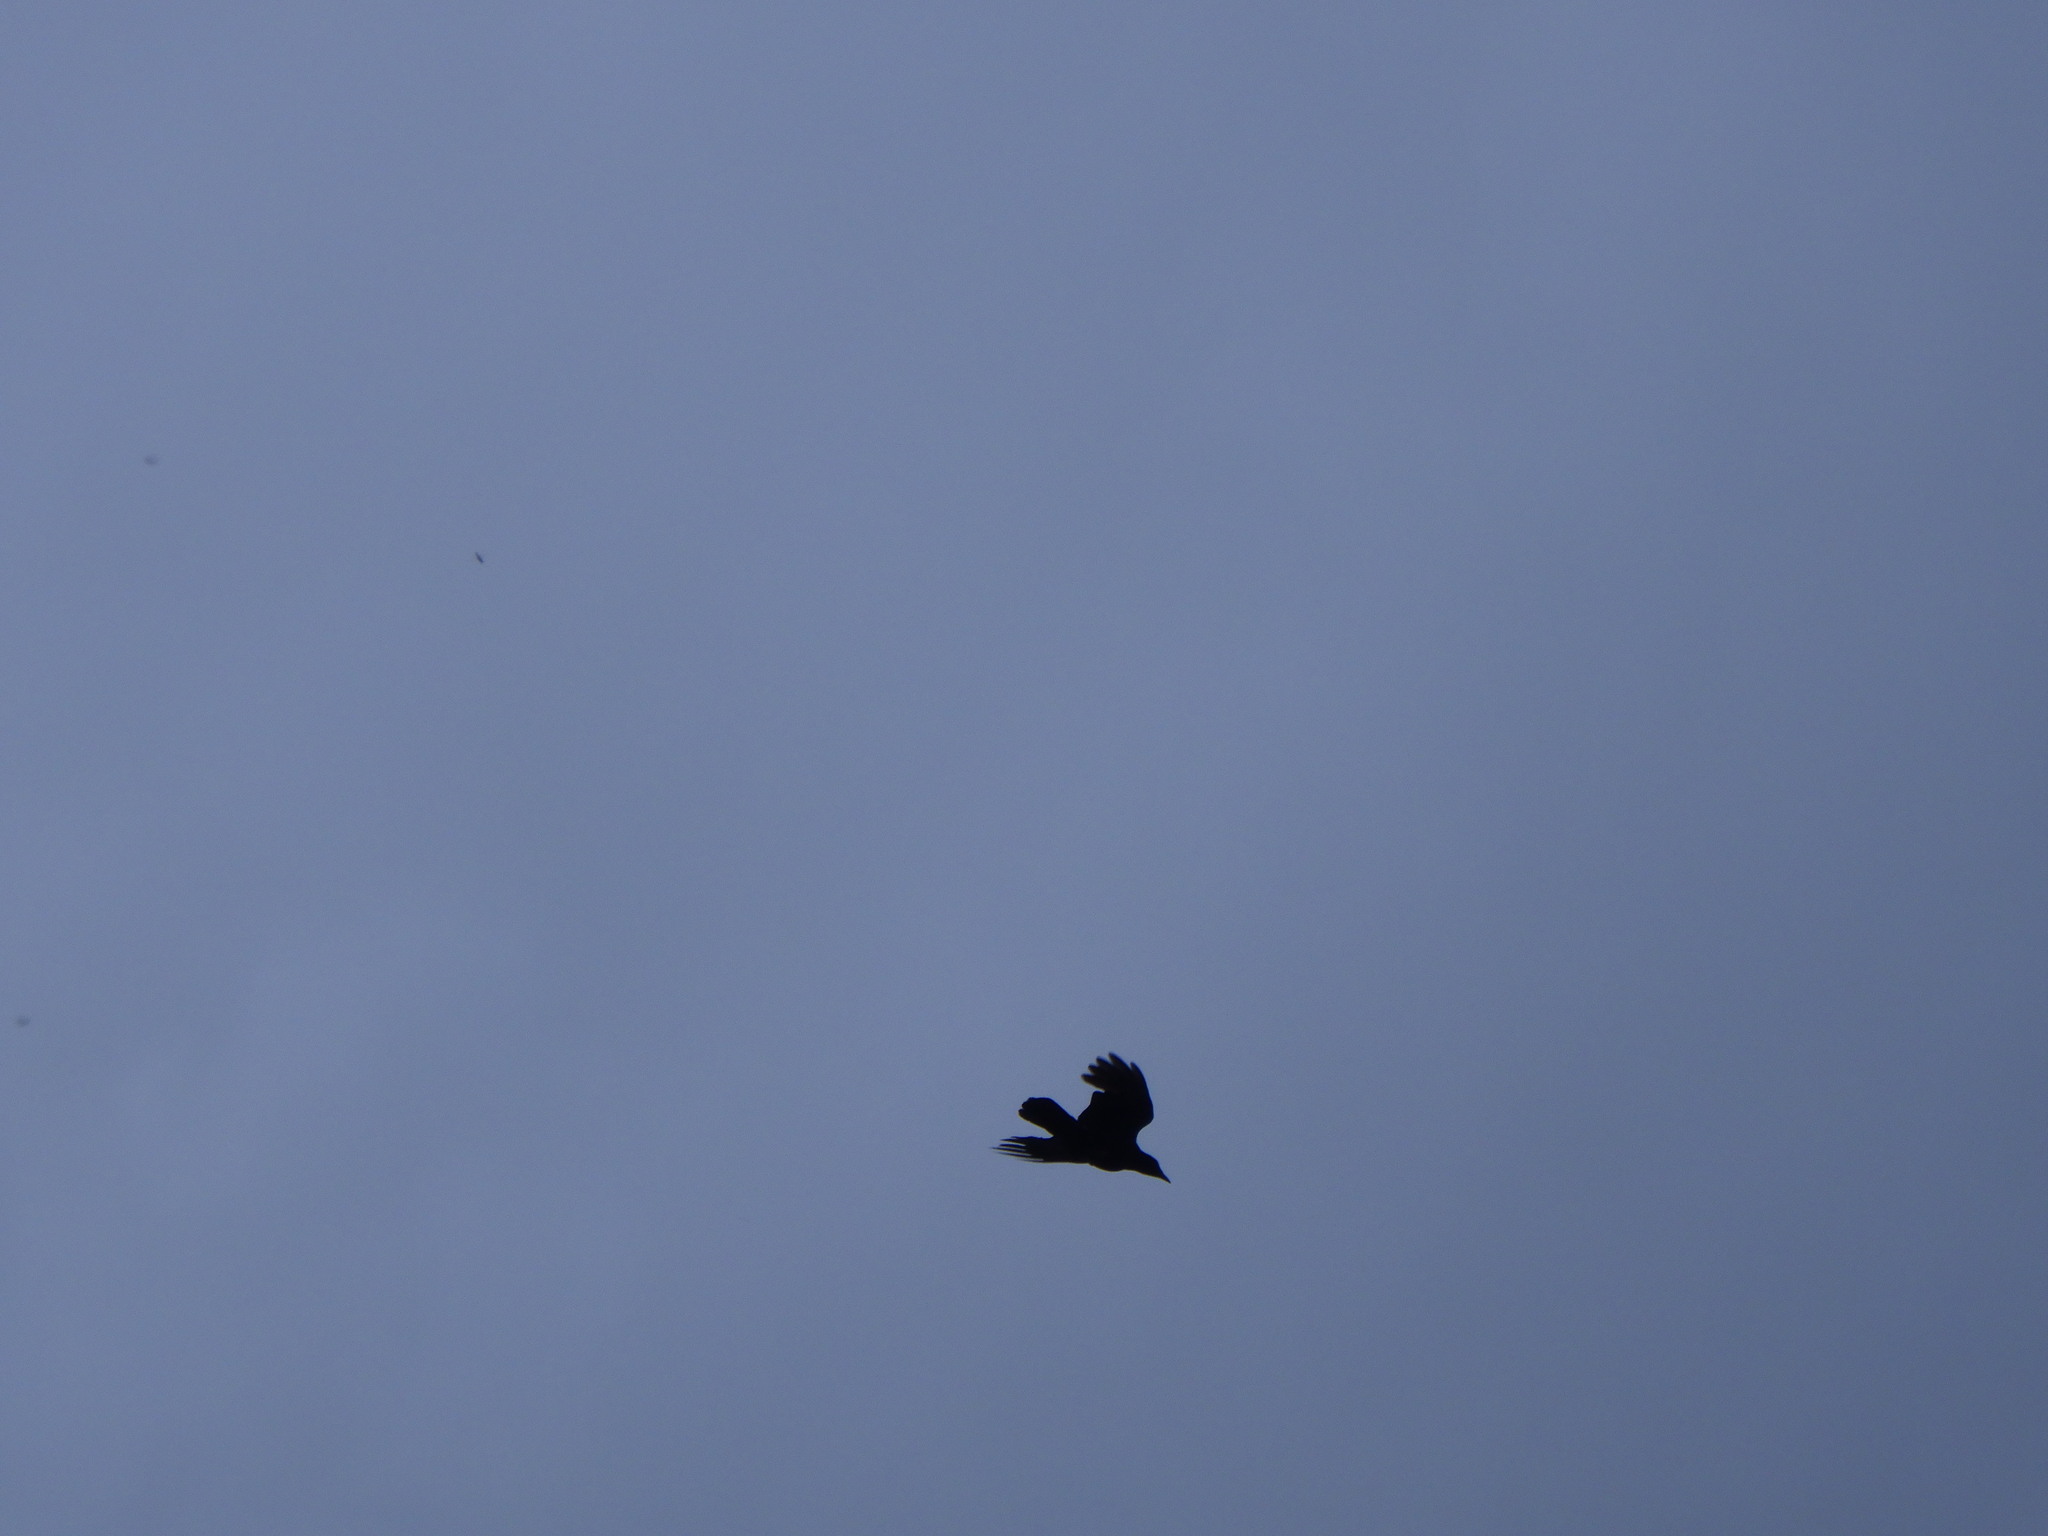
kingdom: Animalia
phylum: Chordata
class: Aves
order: Passeriformes
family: Corvidae
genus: Corvus
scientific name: Corvus brachyrhynchos
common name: American crow
